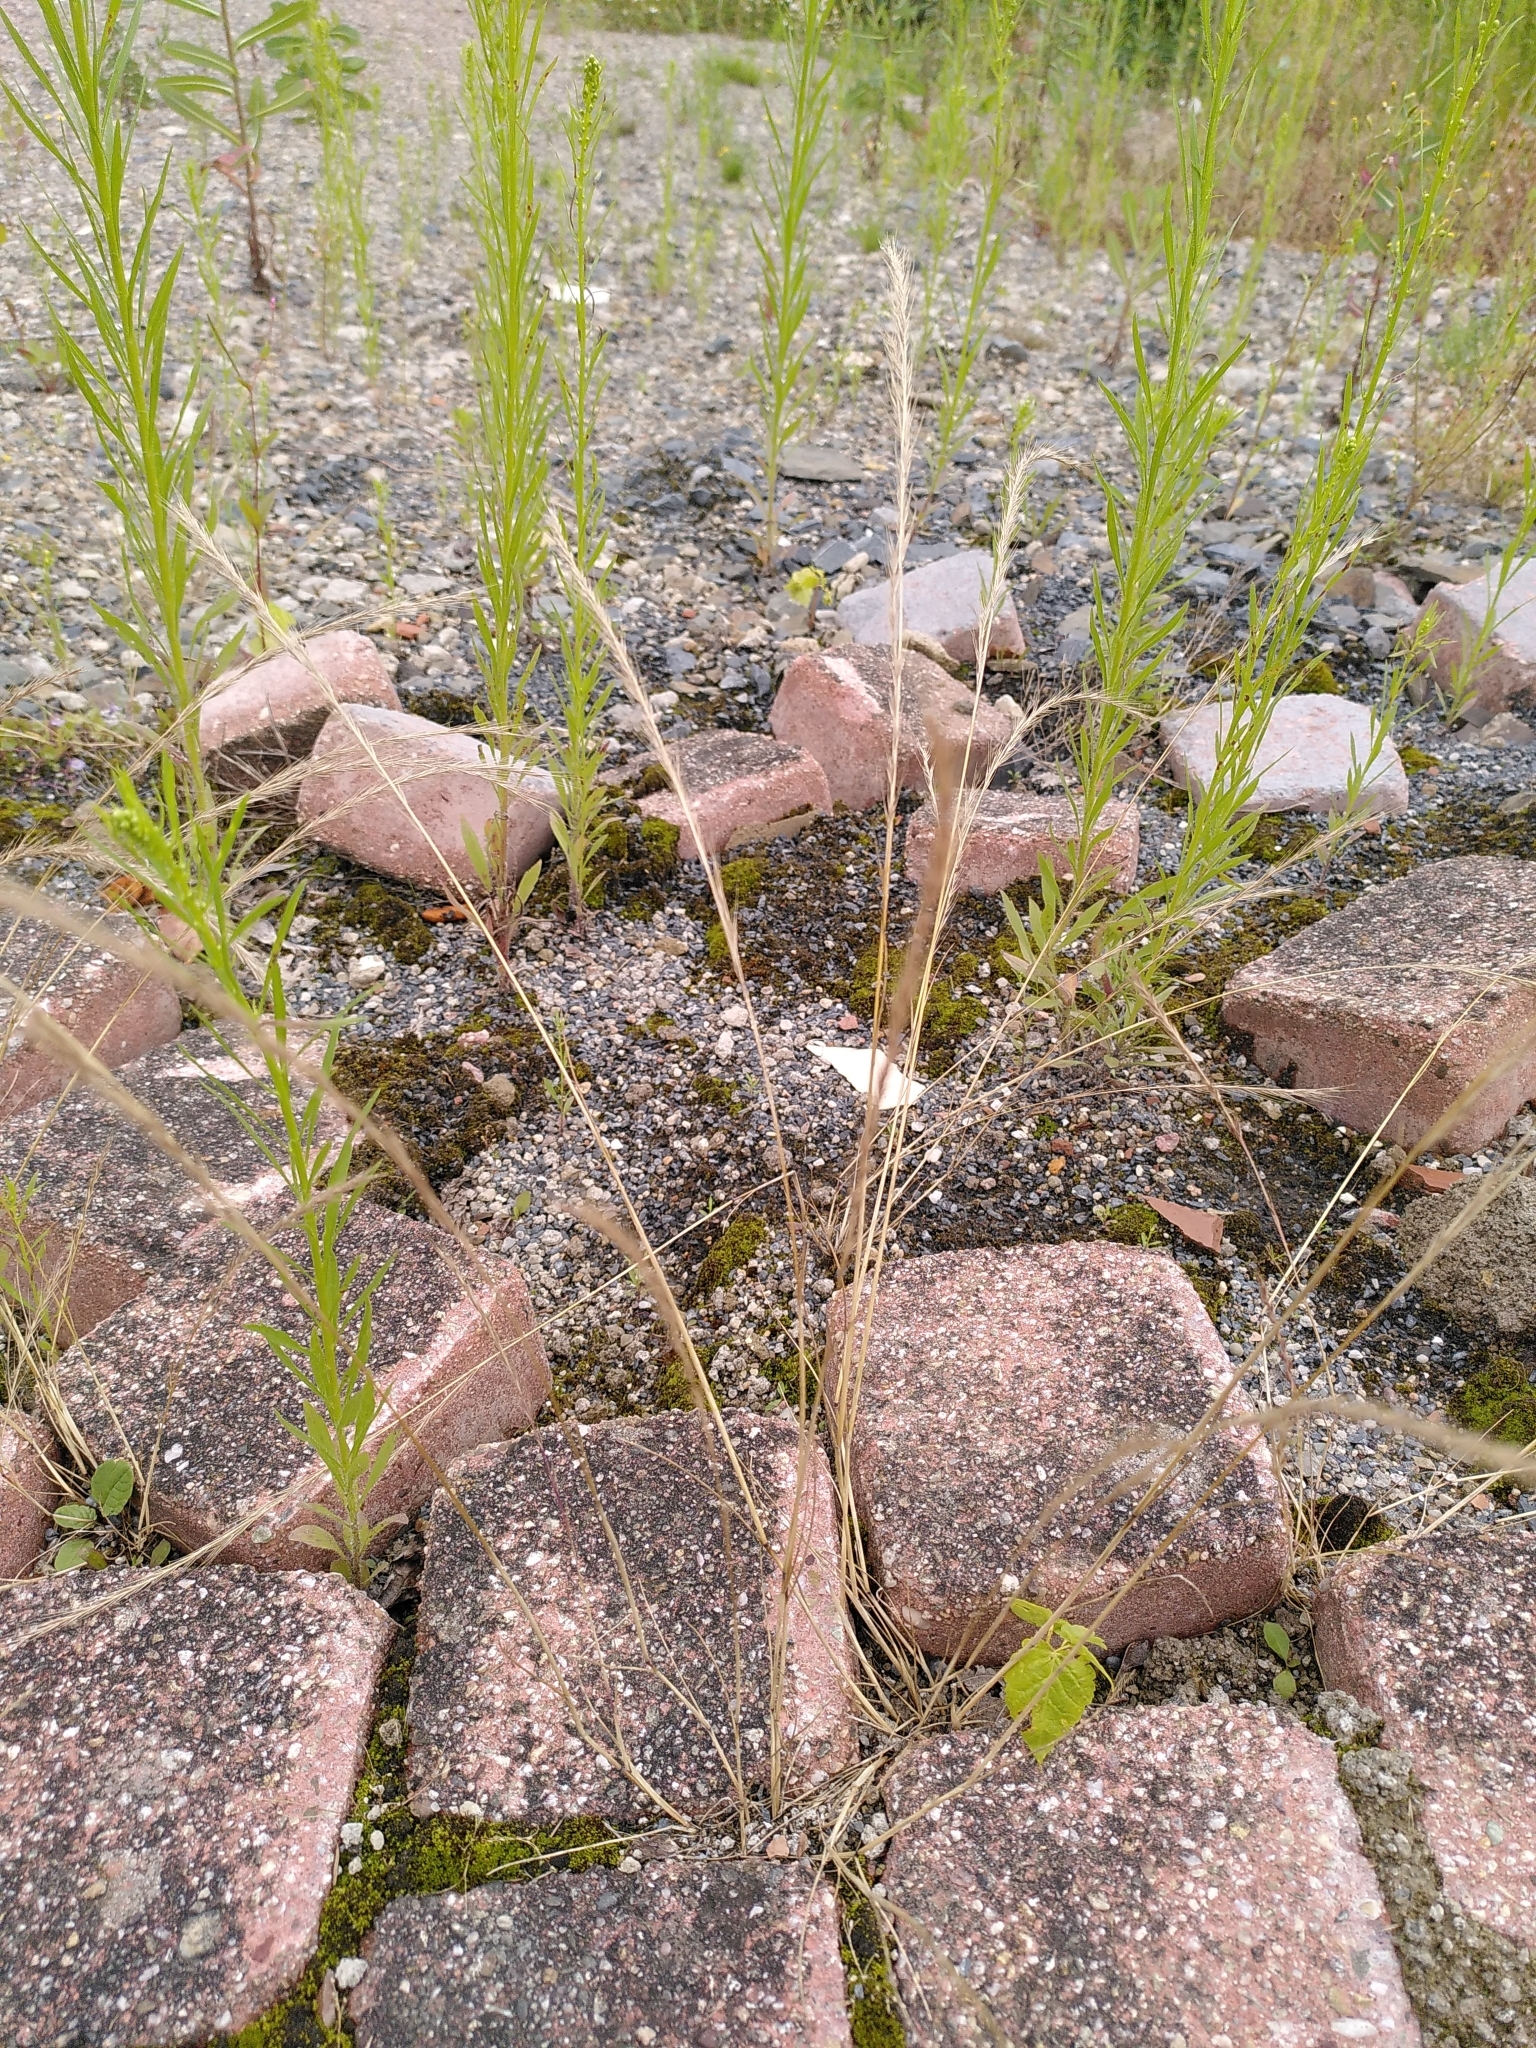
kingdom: Plantae
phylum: Tracheophyta
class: Liliopsida
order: Poales
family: Poaceae
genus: Festuca
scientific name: Festuca myuros
